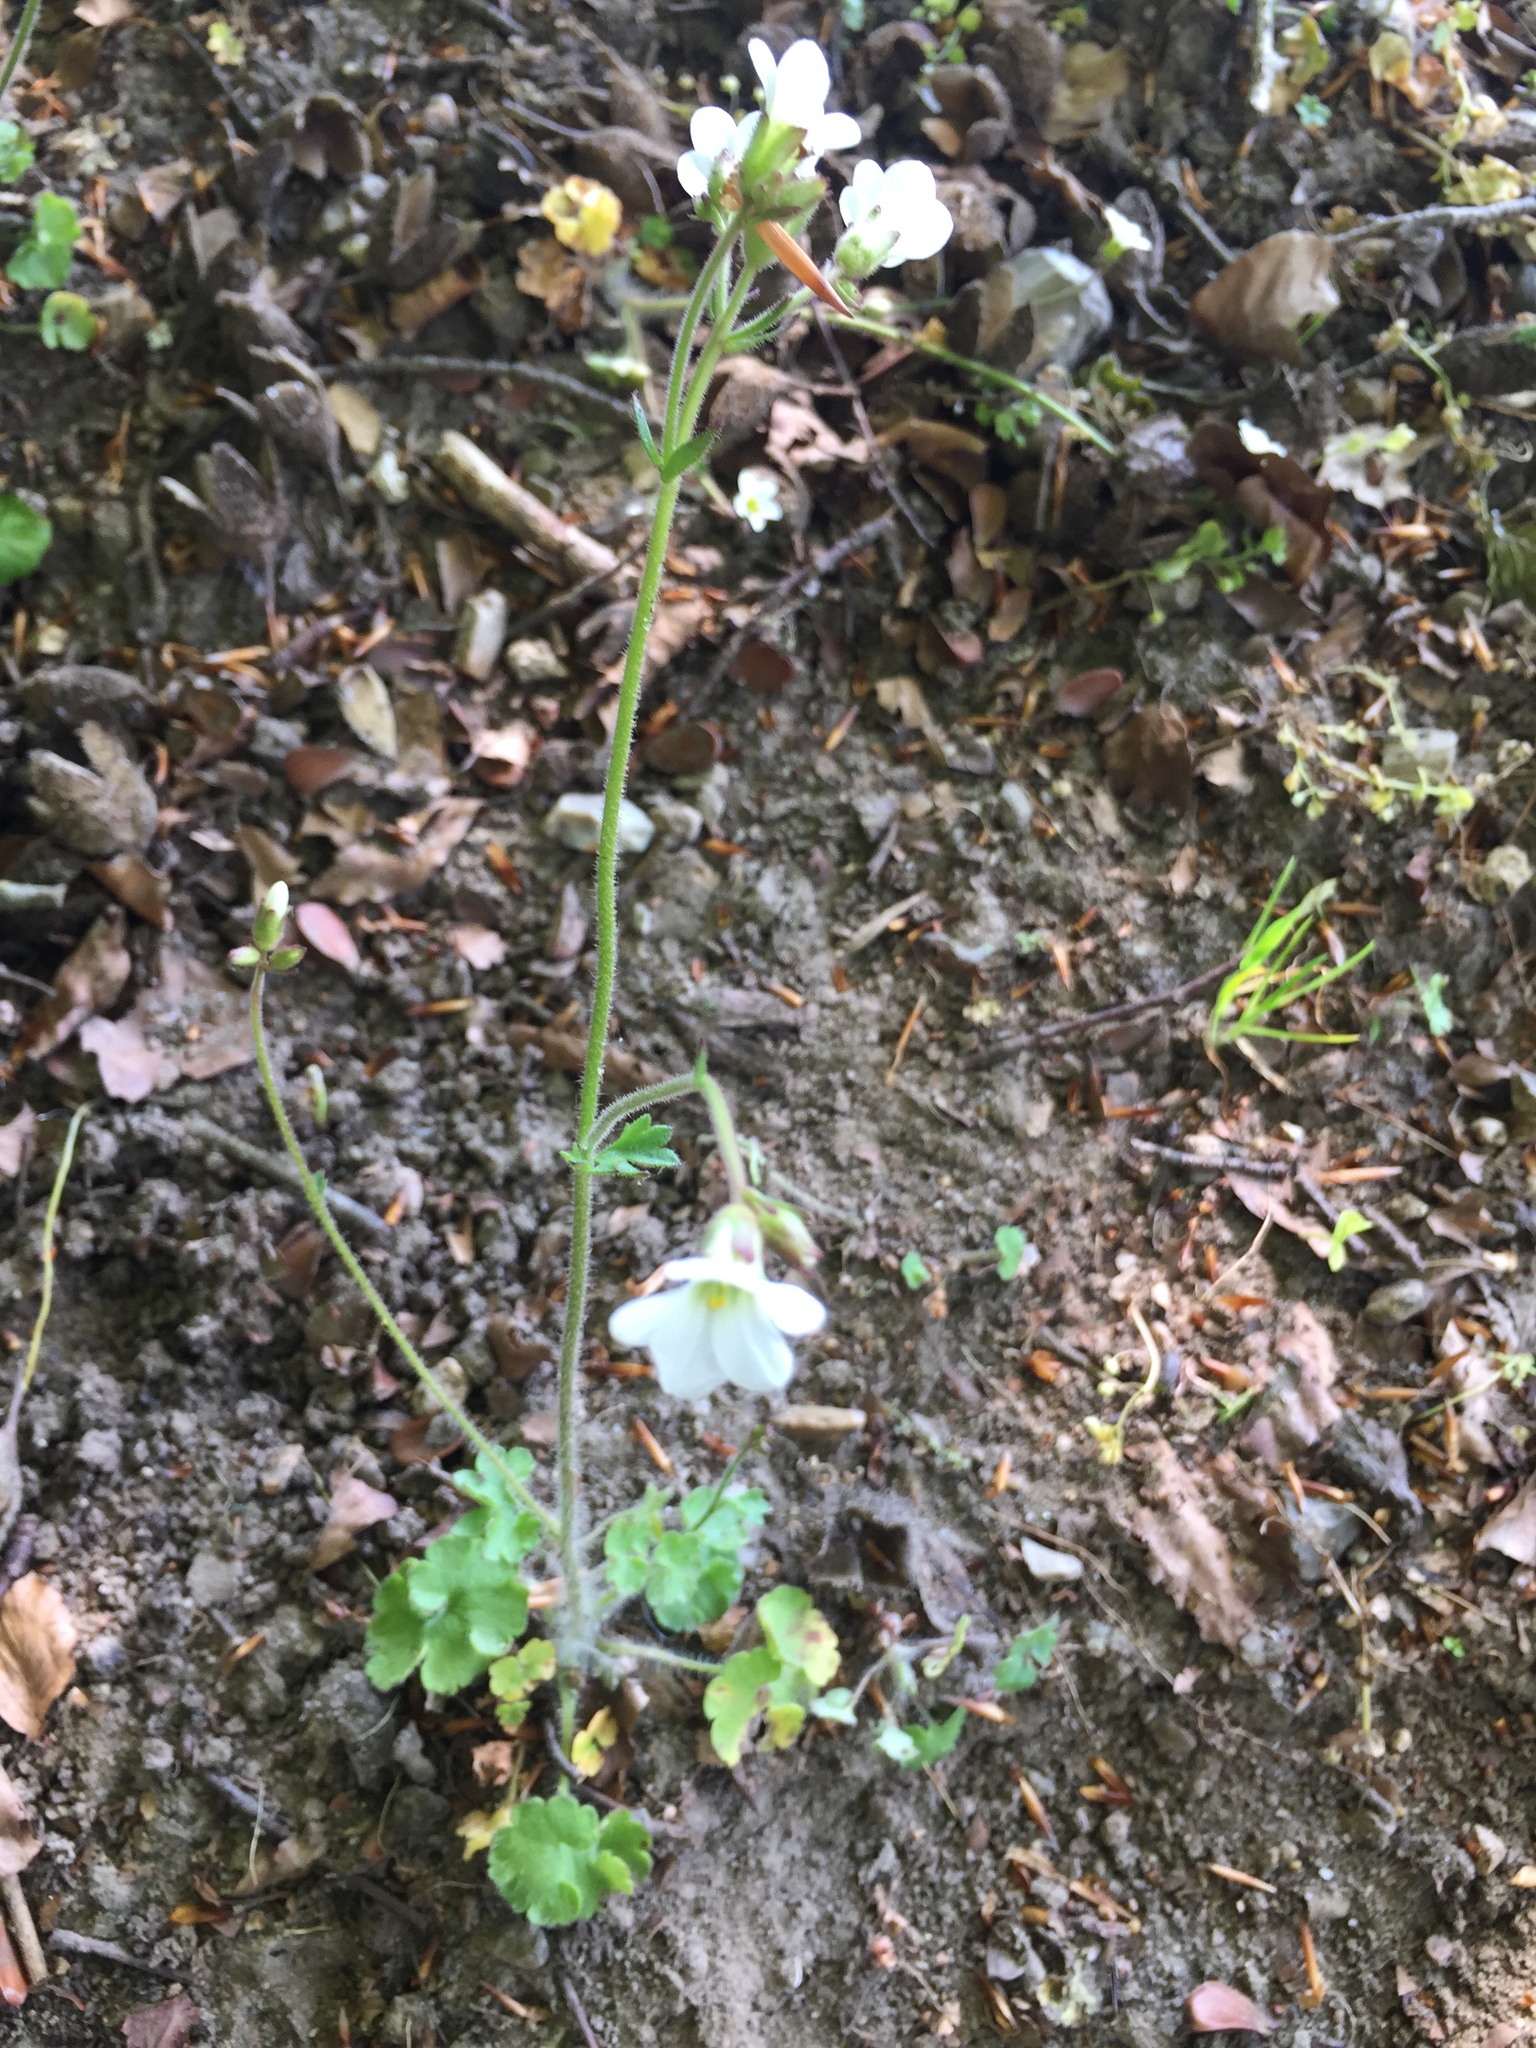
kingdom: Plantae
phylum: Tracheophyta
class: Magnoliopsida
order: Saxifragales
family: Saxifragaceae
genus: Saxifraga
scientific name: Saxifraga granulata
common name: Meadow saxifrage
